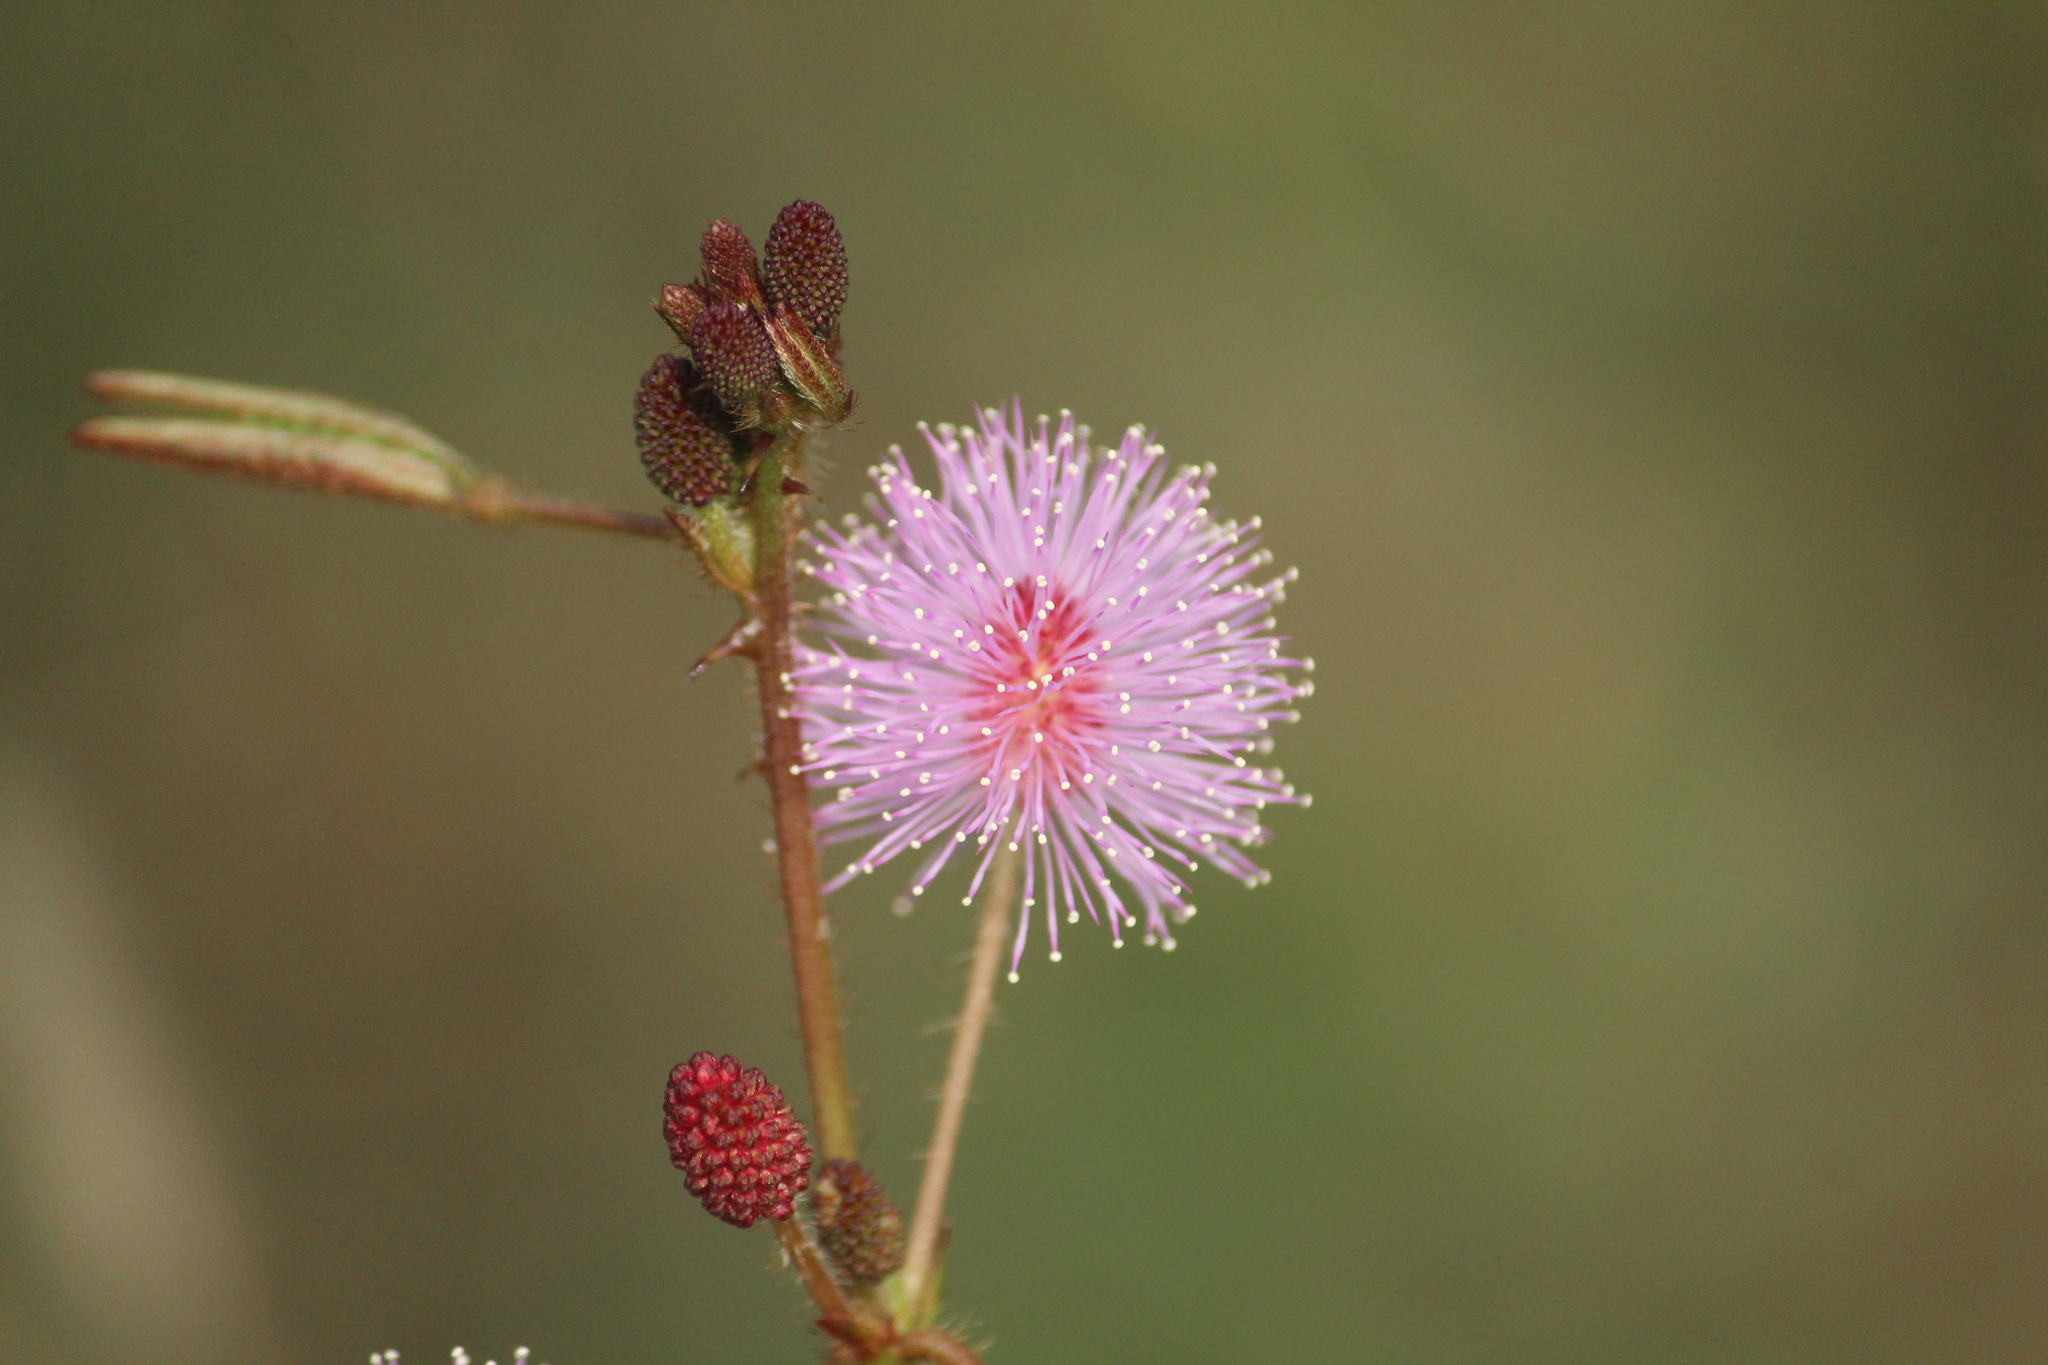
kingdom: Plantae
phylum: Tracheophyta
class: Magnoliopsida
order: Fabales
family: Fabaceae
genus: Mimosa
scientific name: Mimosa pudica
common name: Sensitive plant
